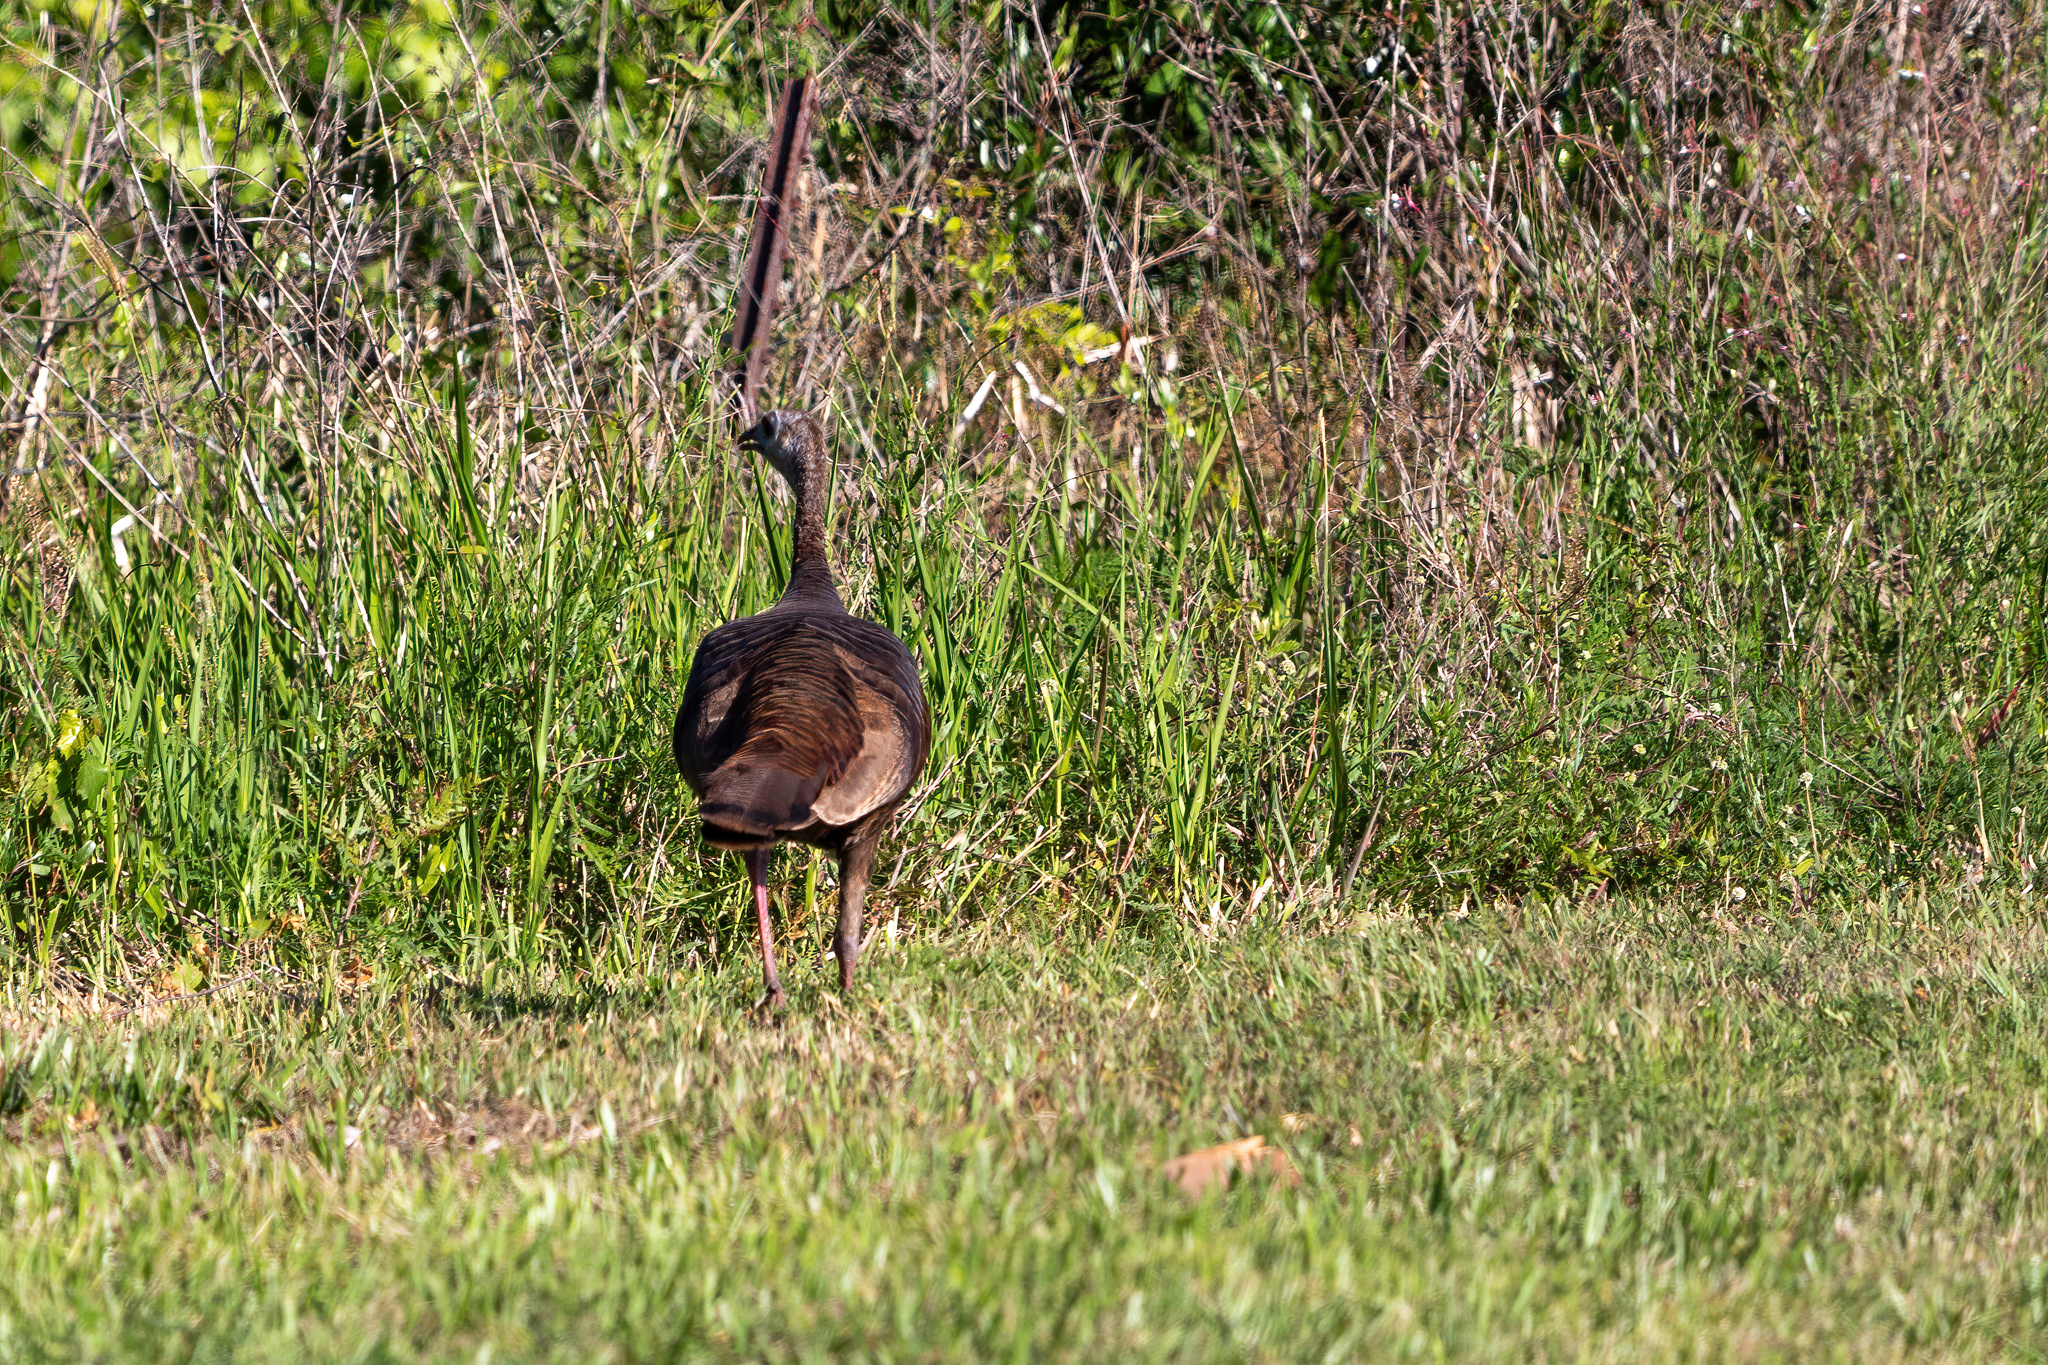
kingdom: Animalia
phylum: Chordata
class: Aves
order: Galliformes
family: Phasianidae
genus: Meleagris
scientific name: Meleagris gallopavo
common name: Wild turkey
